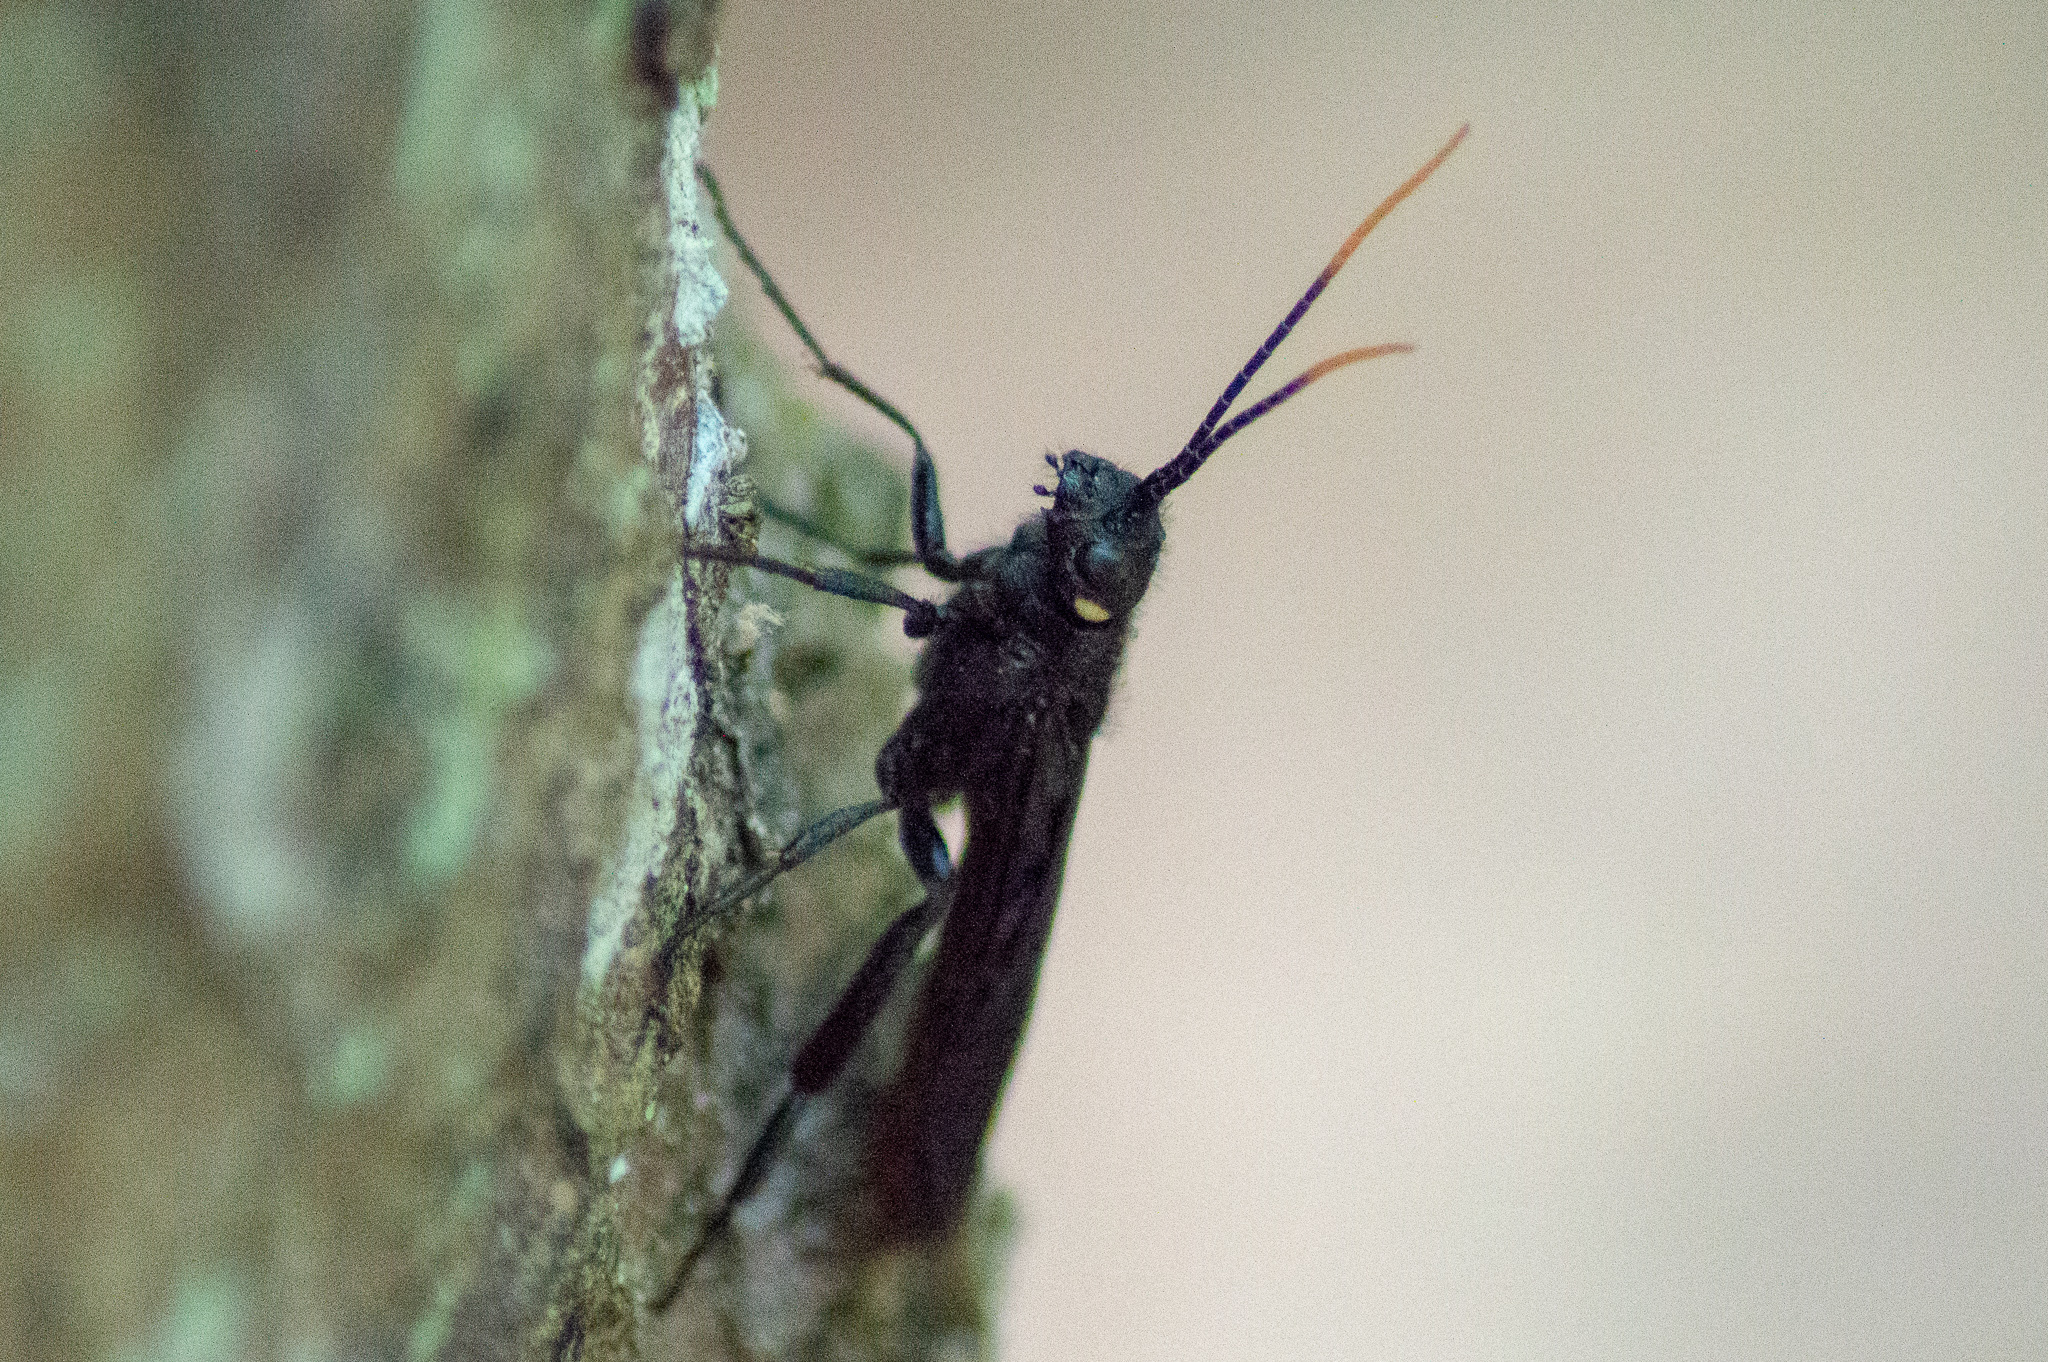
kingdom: Animalia
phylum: Arthropoda
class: Insecta
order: Hymenoptera
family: Siricidae
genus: Urocerus
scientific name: Urocerus cressoni
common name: Black-and-red horntail
